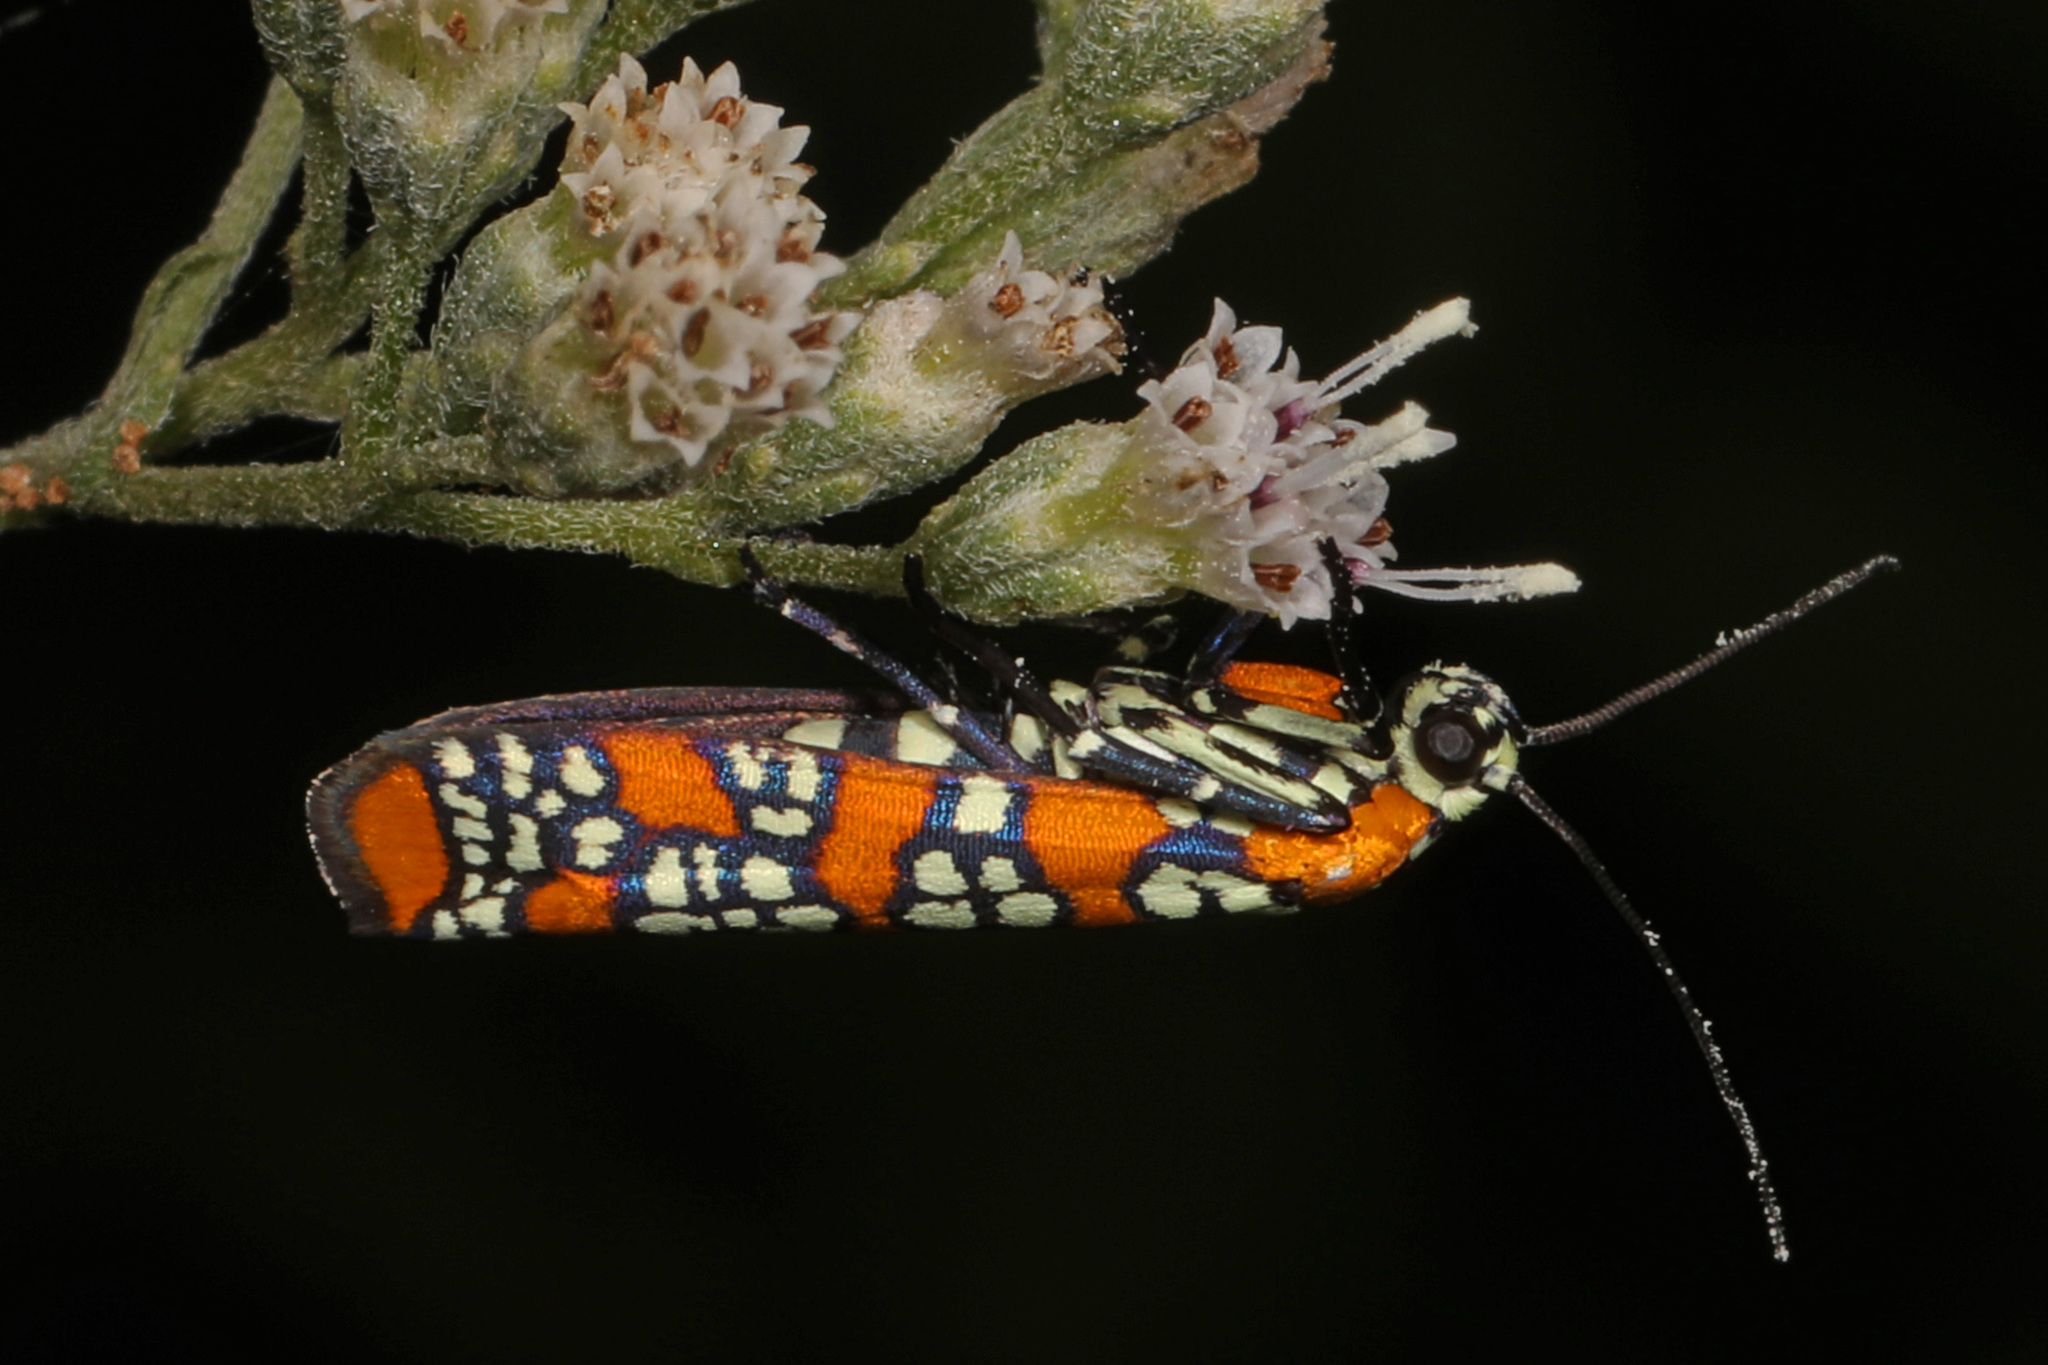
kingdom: Animalia
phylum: Arthropoda
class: Insecta
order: Lepidoptera
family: Attevidae
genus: Atteva
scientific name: Atteva punctella
